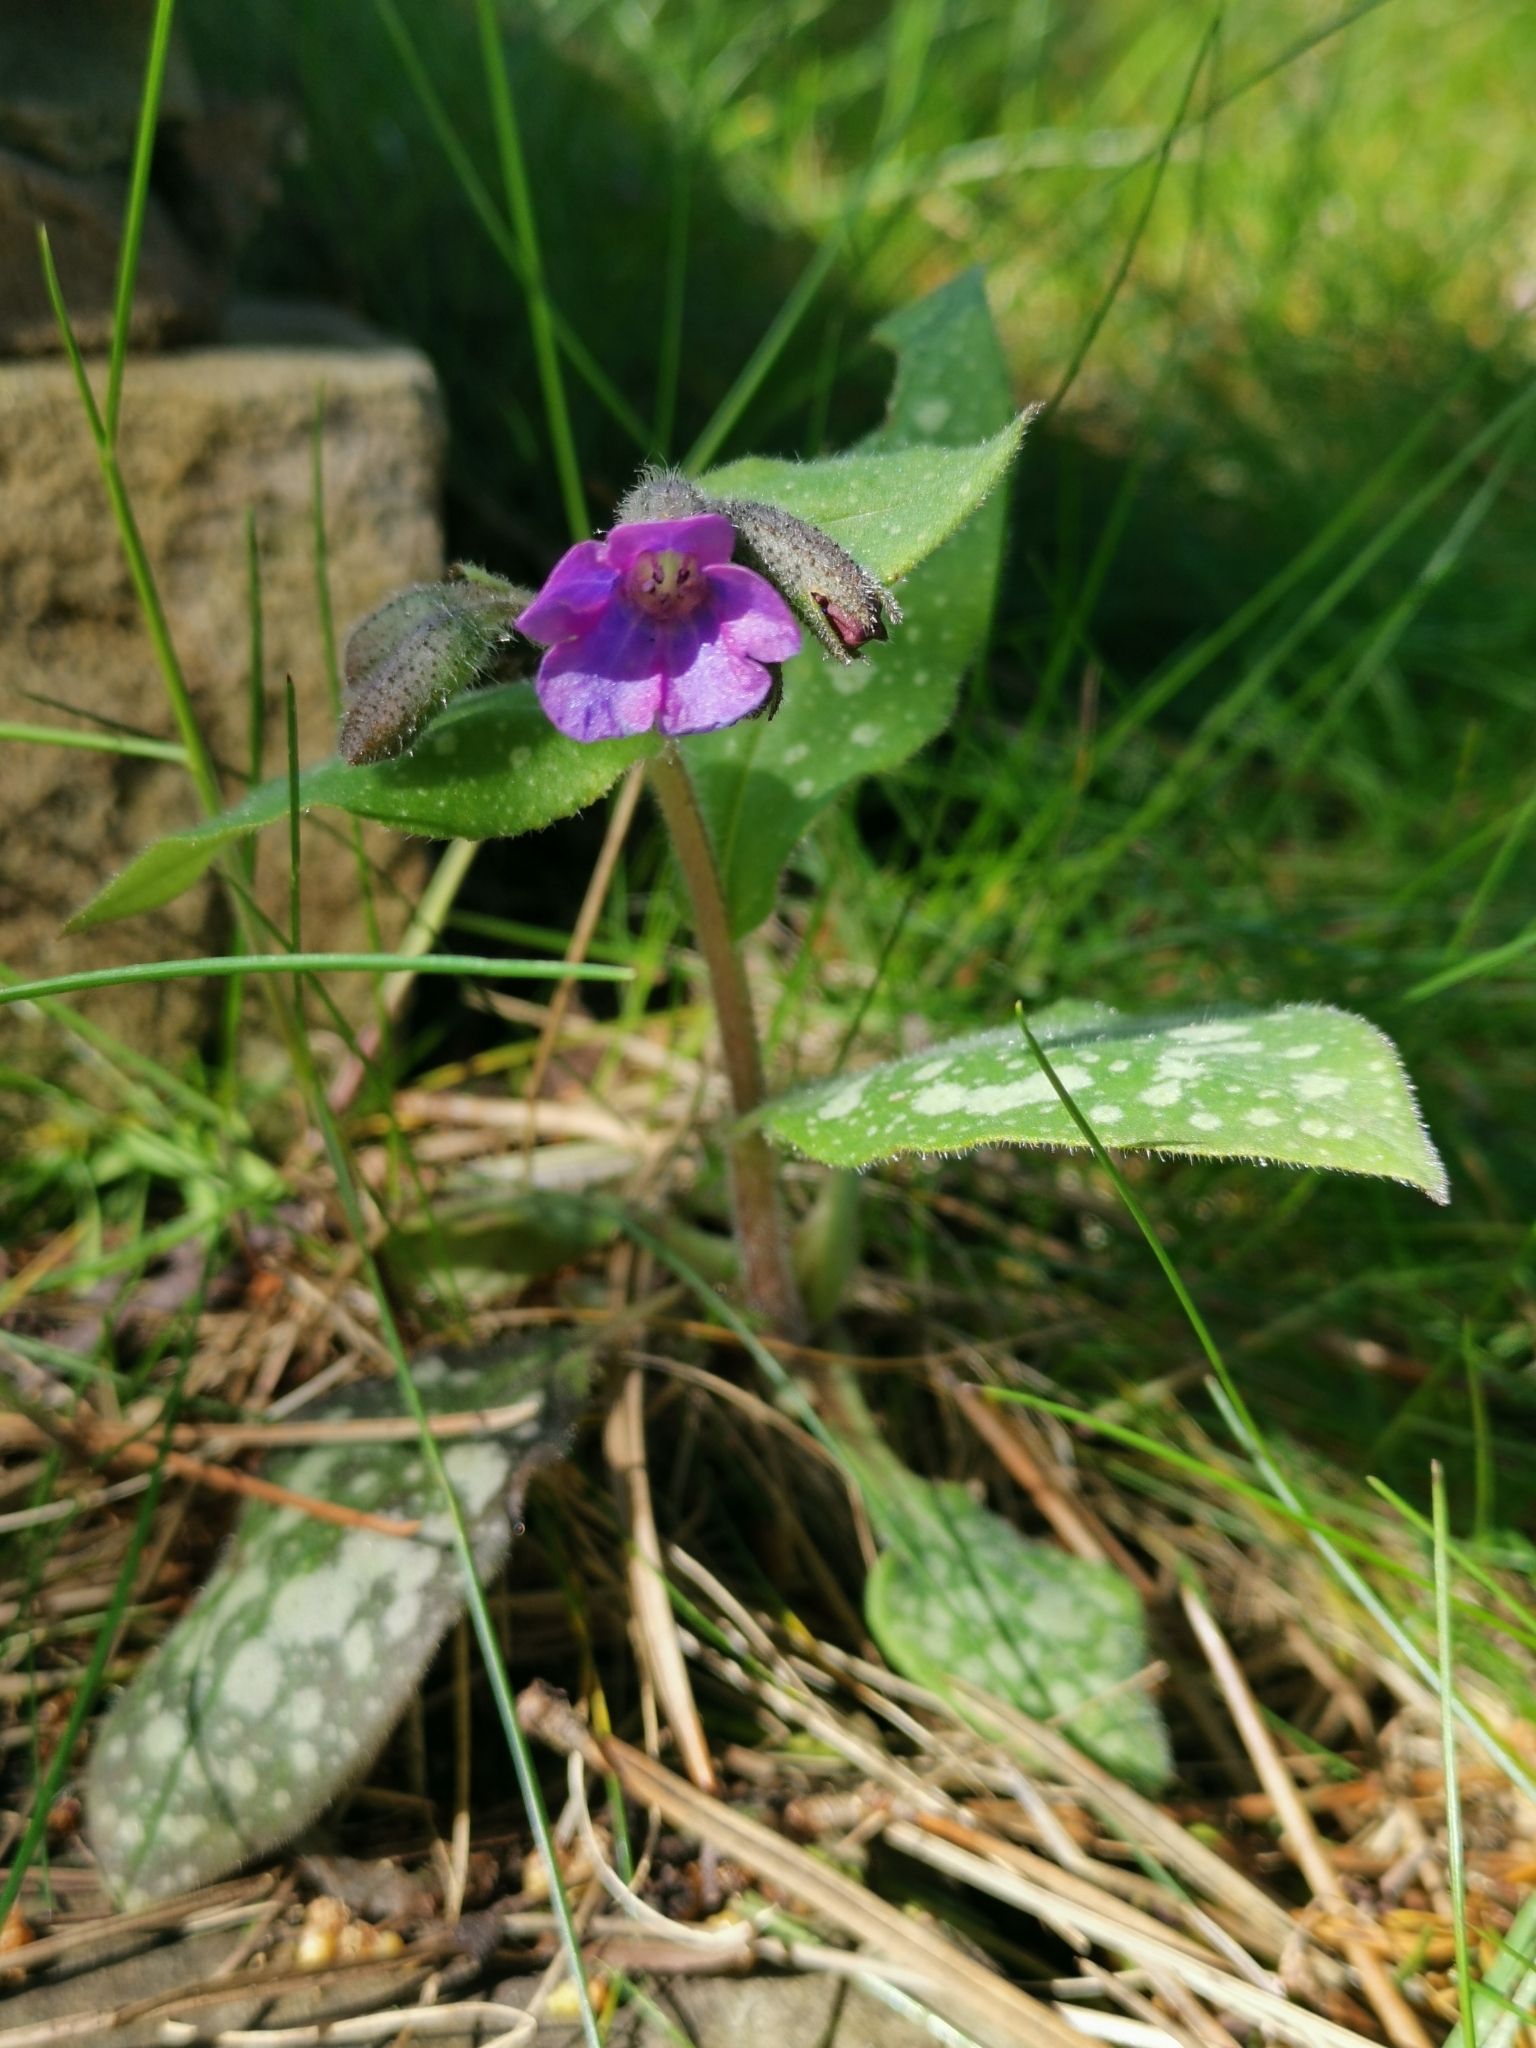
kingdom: Plantae
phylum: Tracheophyta
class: Magnoliopsida
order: Boraginales
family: Boraginaceae
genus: Pulmonaria
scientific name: Pulmonaria officinalis
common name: Lungwort
